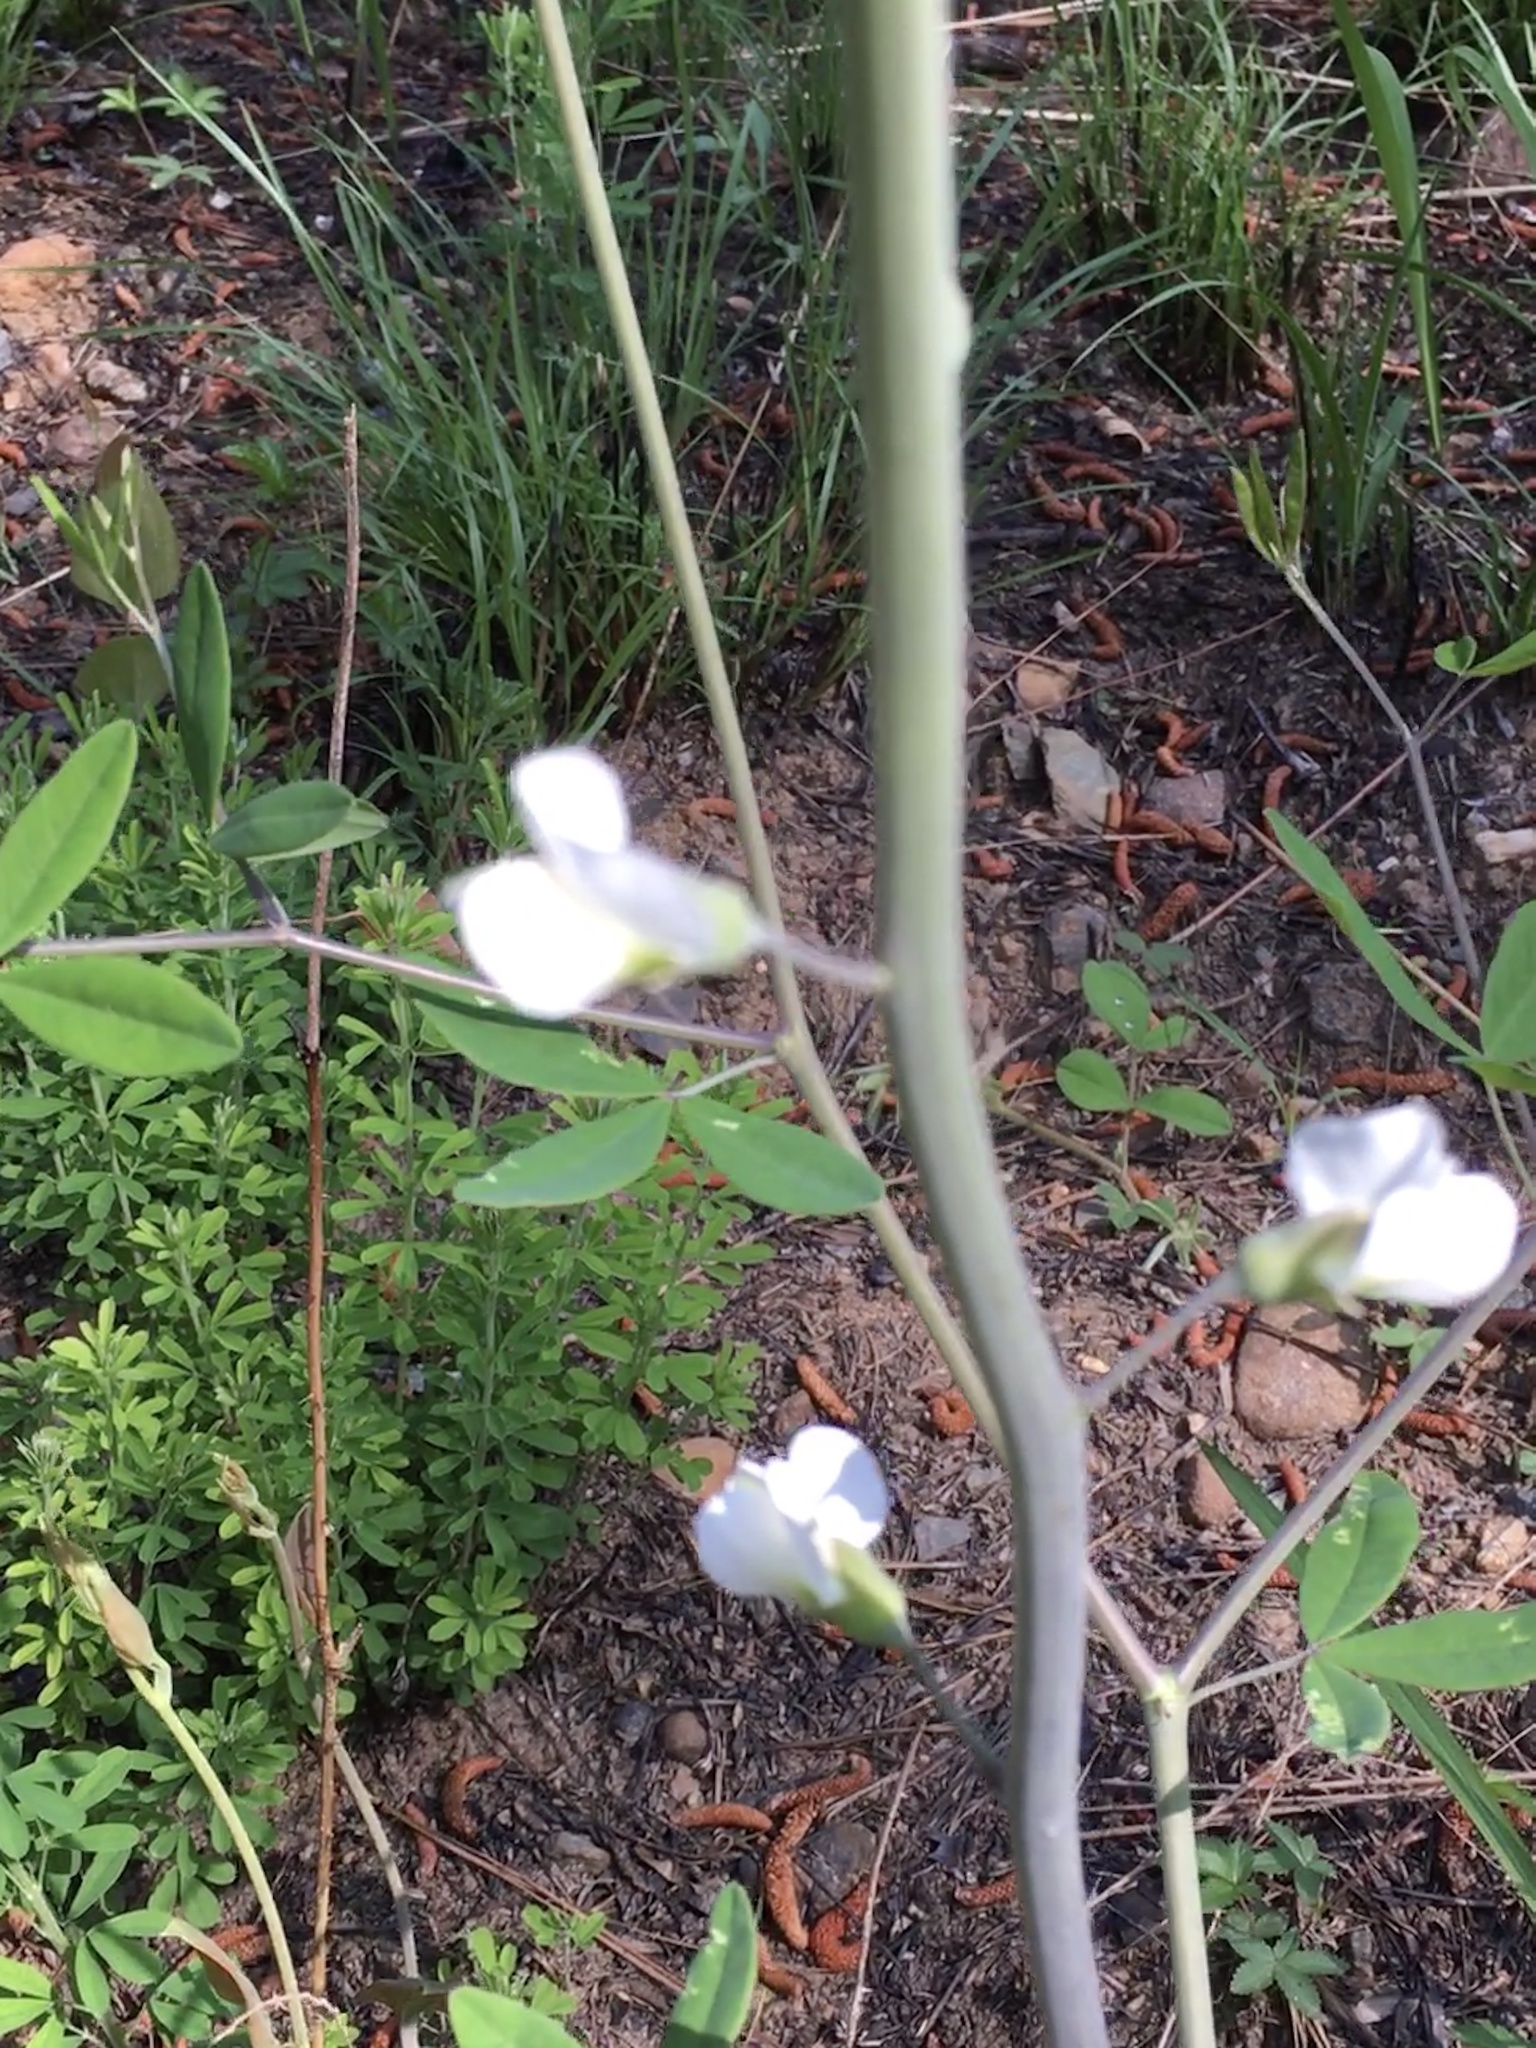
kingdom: Plantae
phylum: Tracheophyta
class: Magnoliopsida
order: Fabales
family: Fabaceae
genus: Baptisia
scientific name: Baptisia albescens
